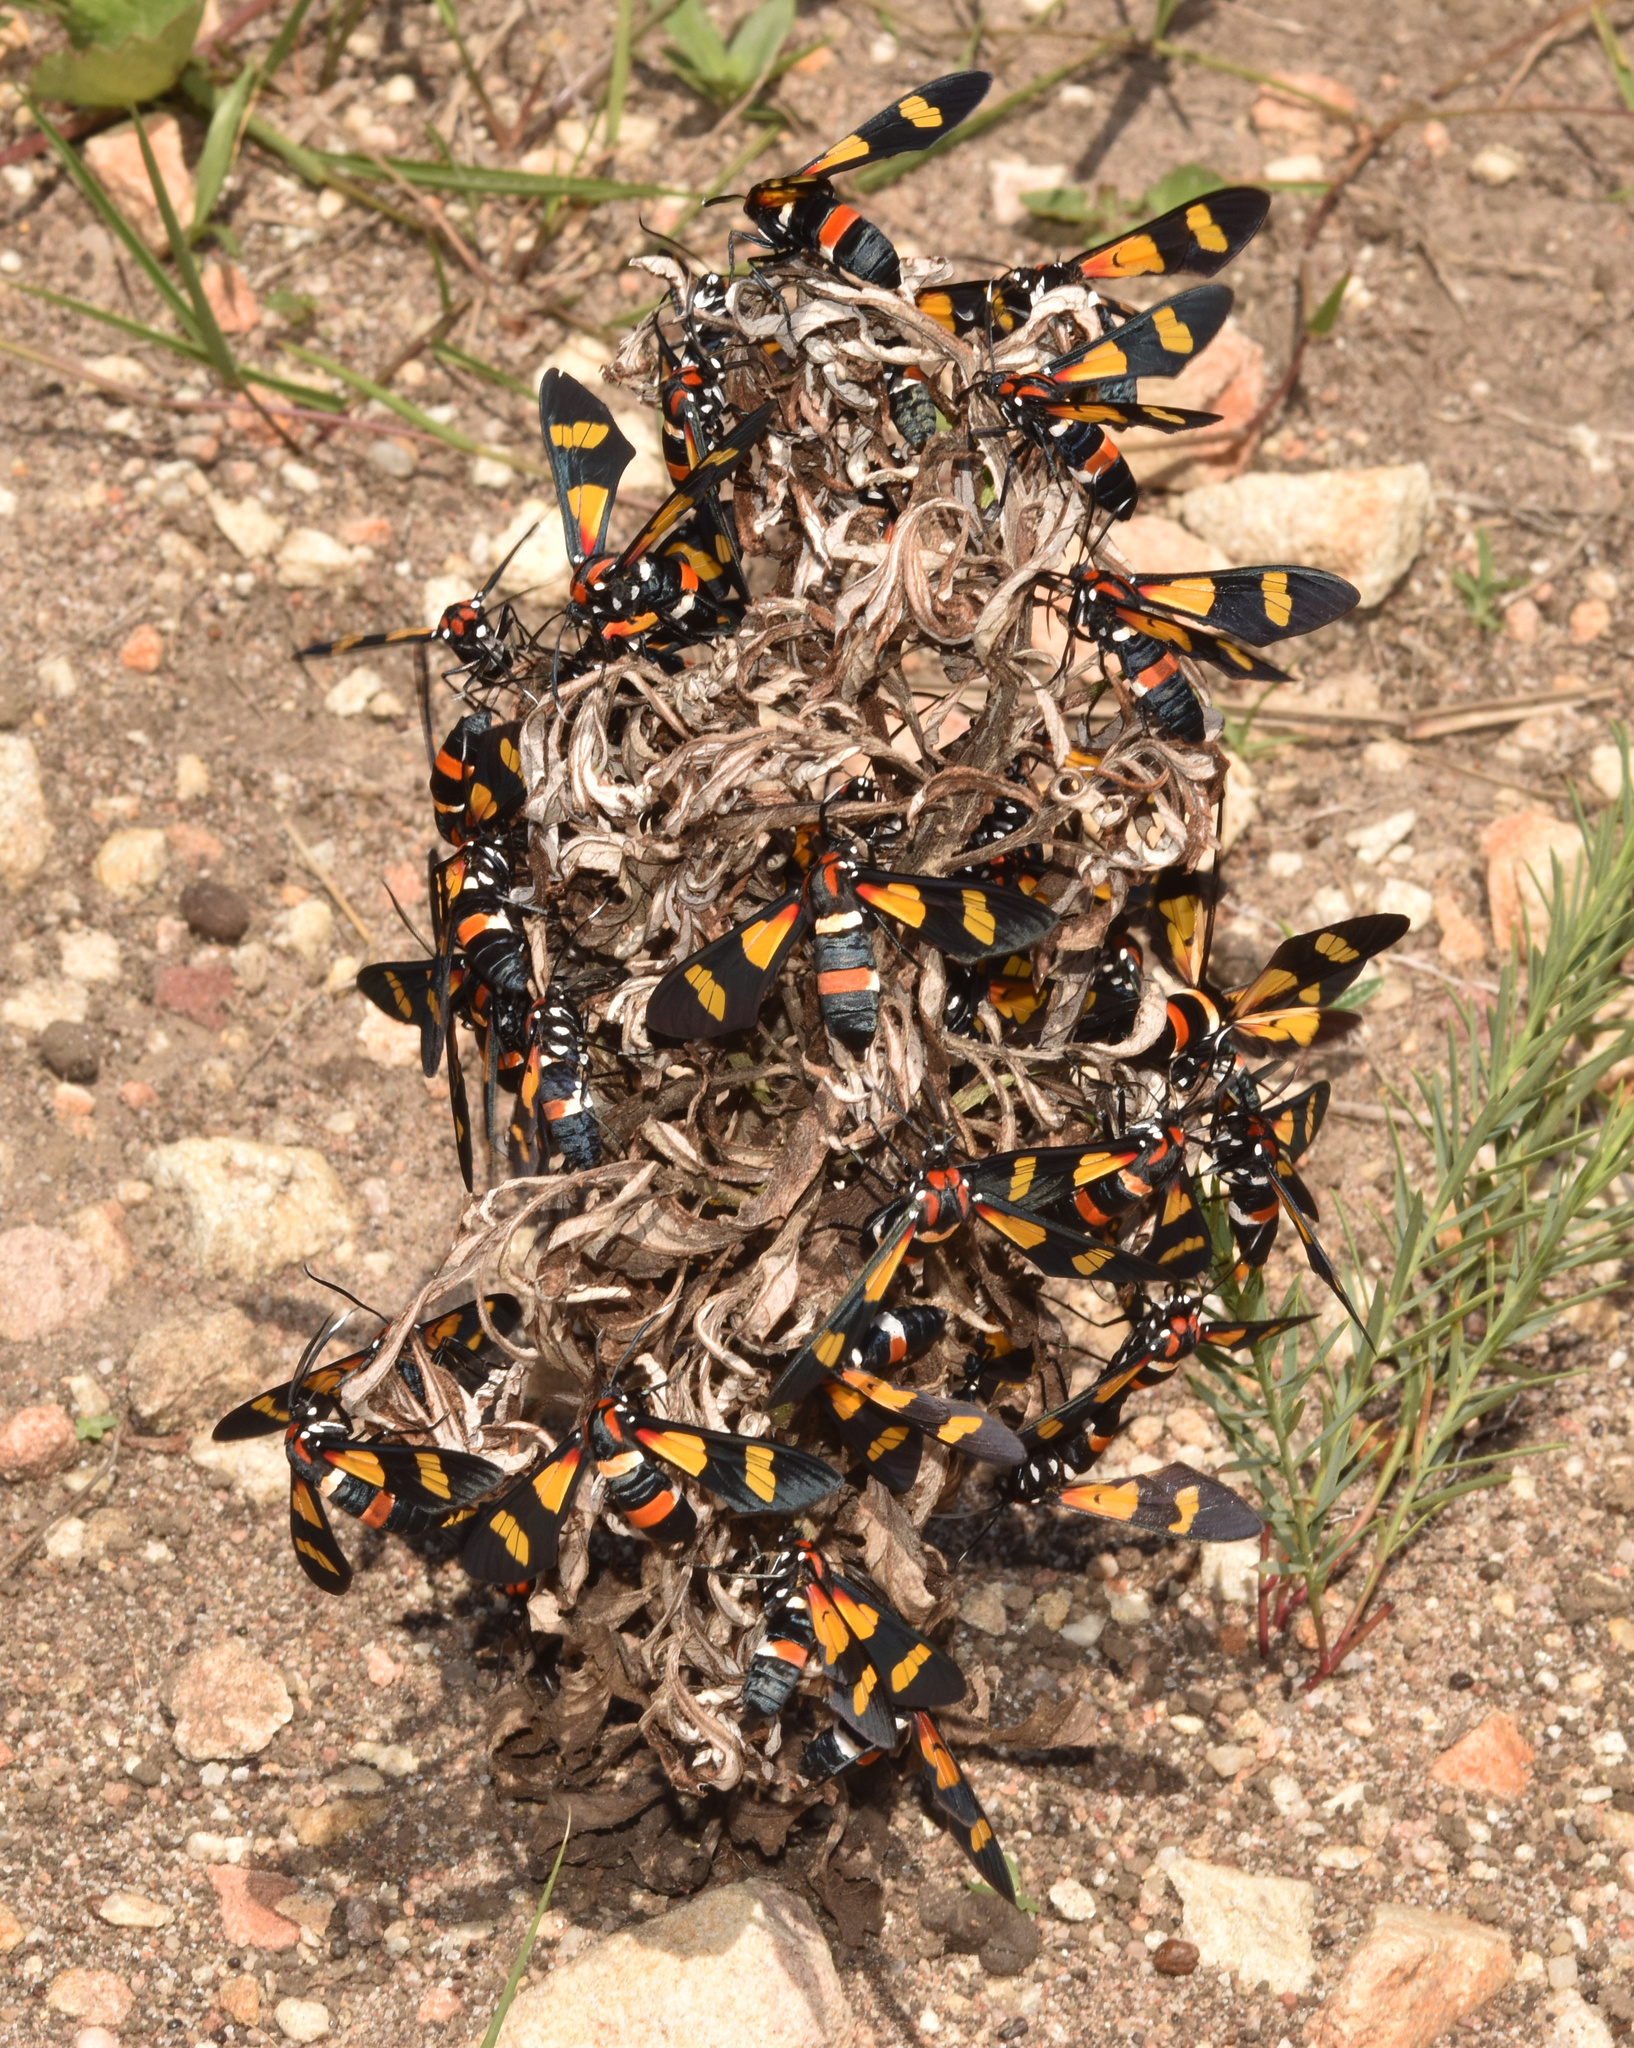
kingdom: Animalia
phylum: Arthropoda
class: Insecta
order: Lepidoptera
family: Erebidae
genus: Euchromia
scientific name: Euchromia amoena
